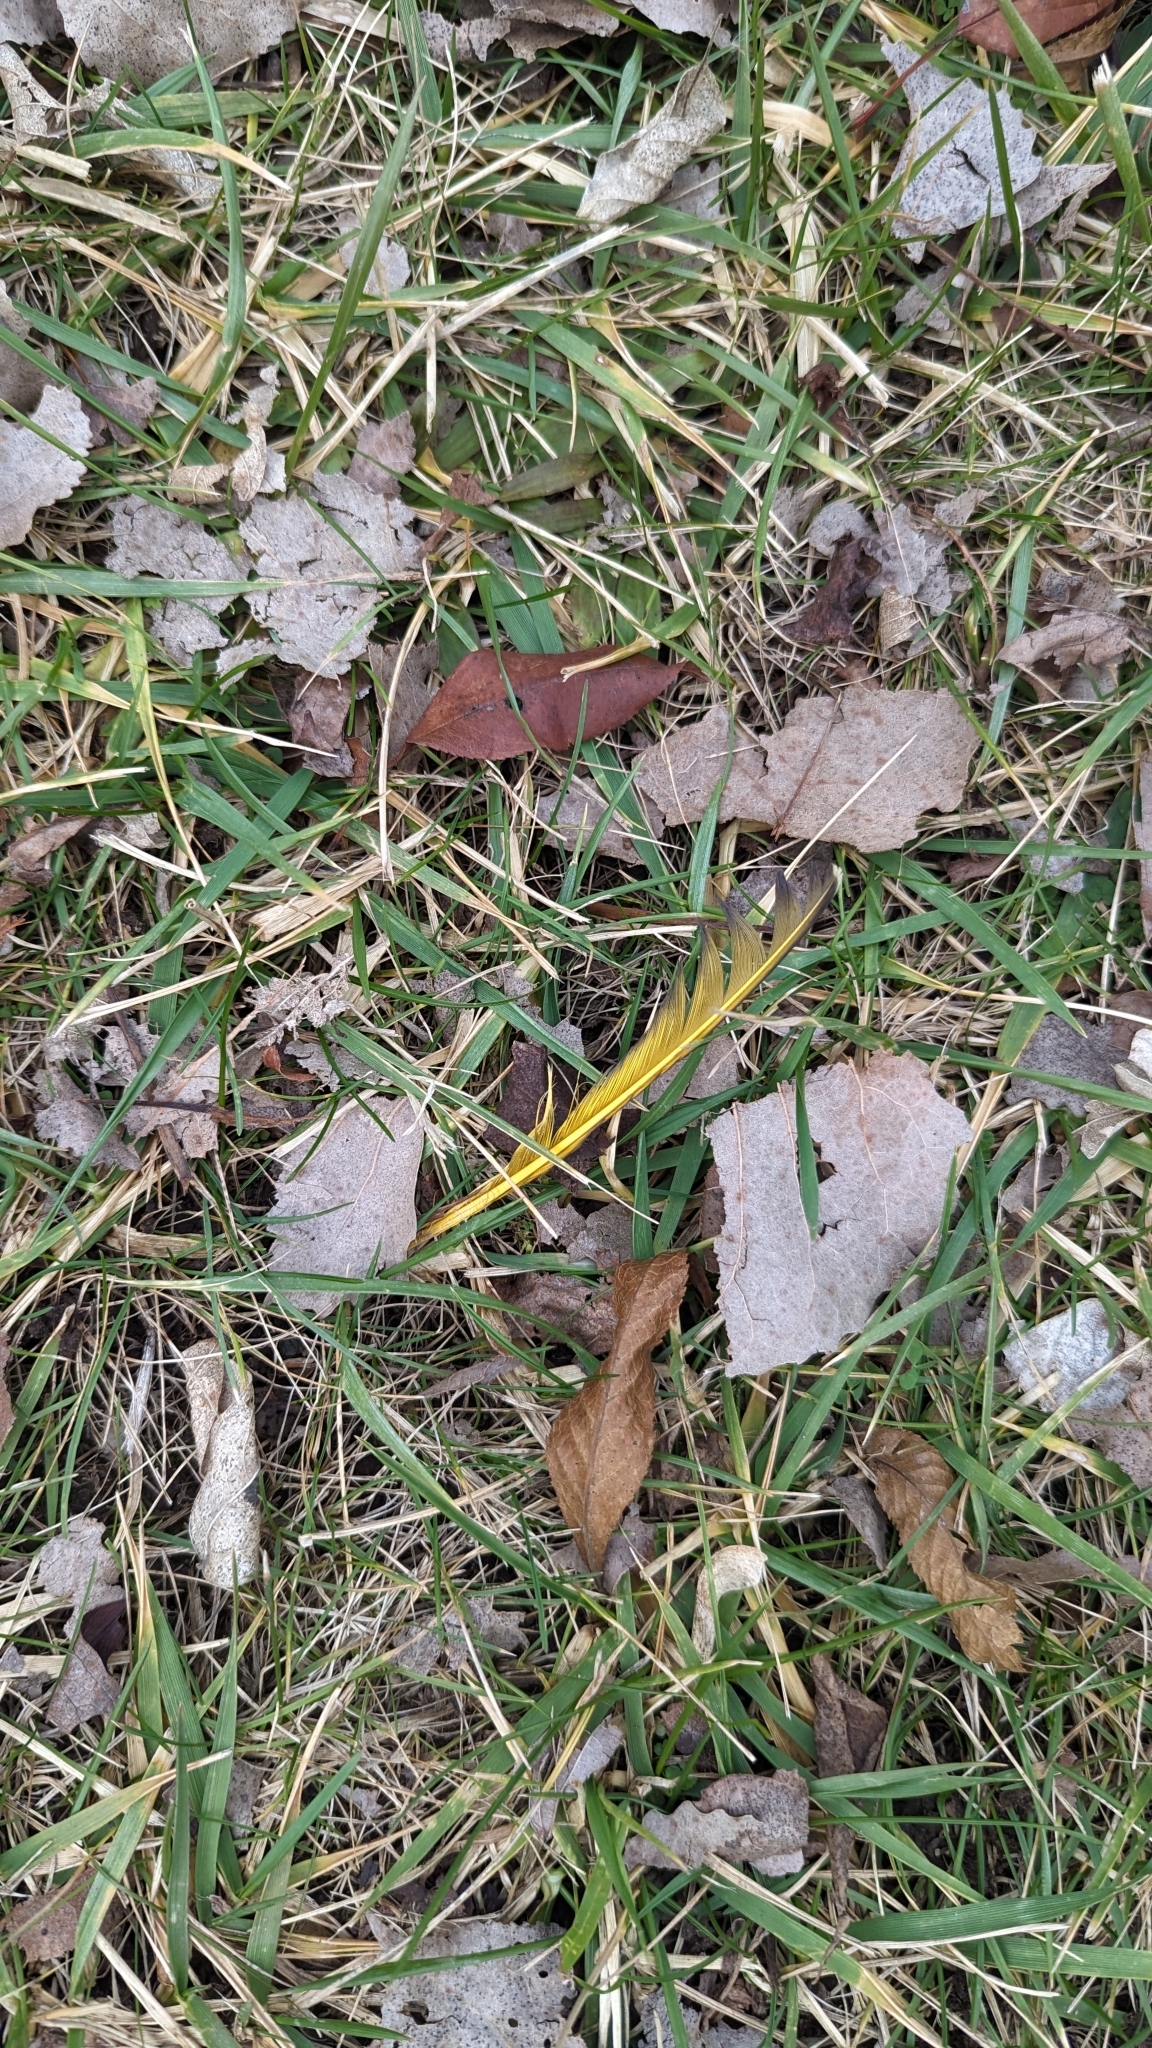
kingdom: Animalia
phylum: Chordata
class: Aves
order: Piciformes
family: Picidae
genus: Colaptes
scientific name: Colaptes auratus
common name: Northern flicker
